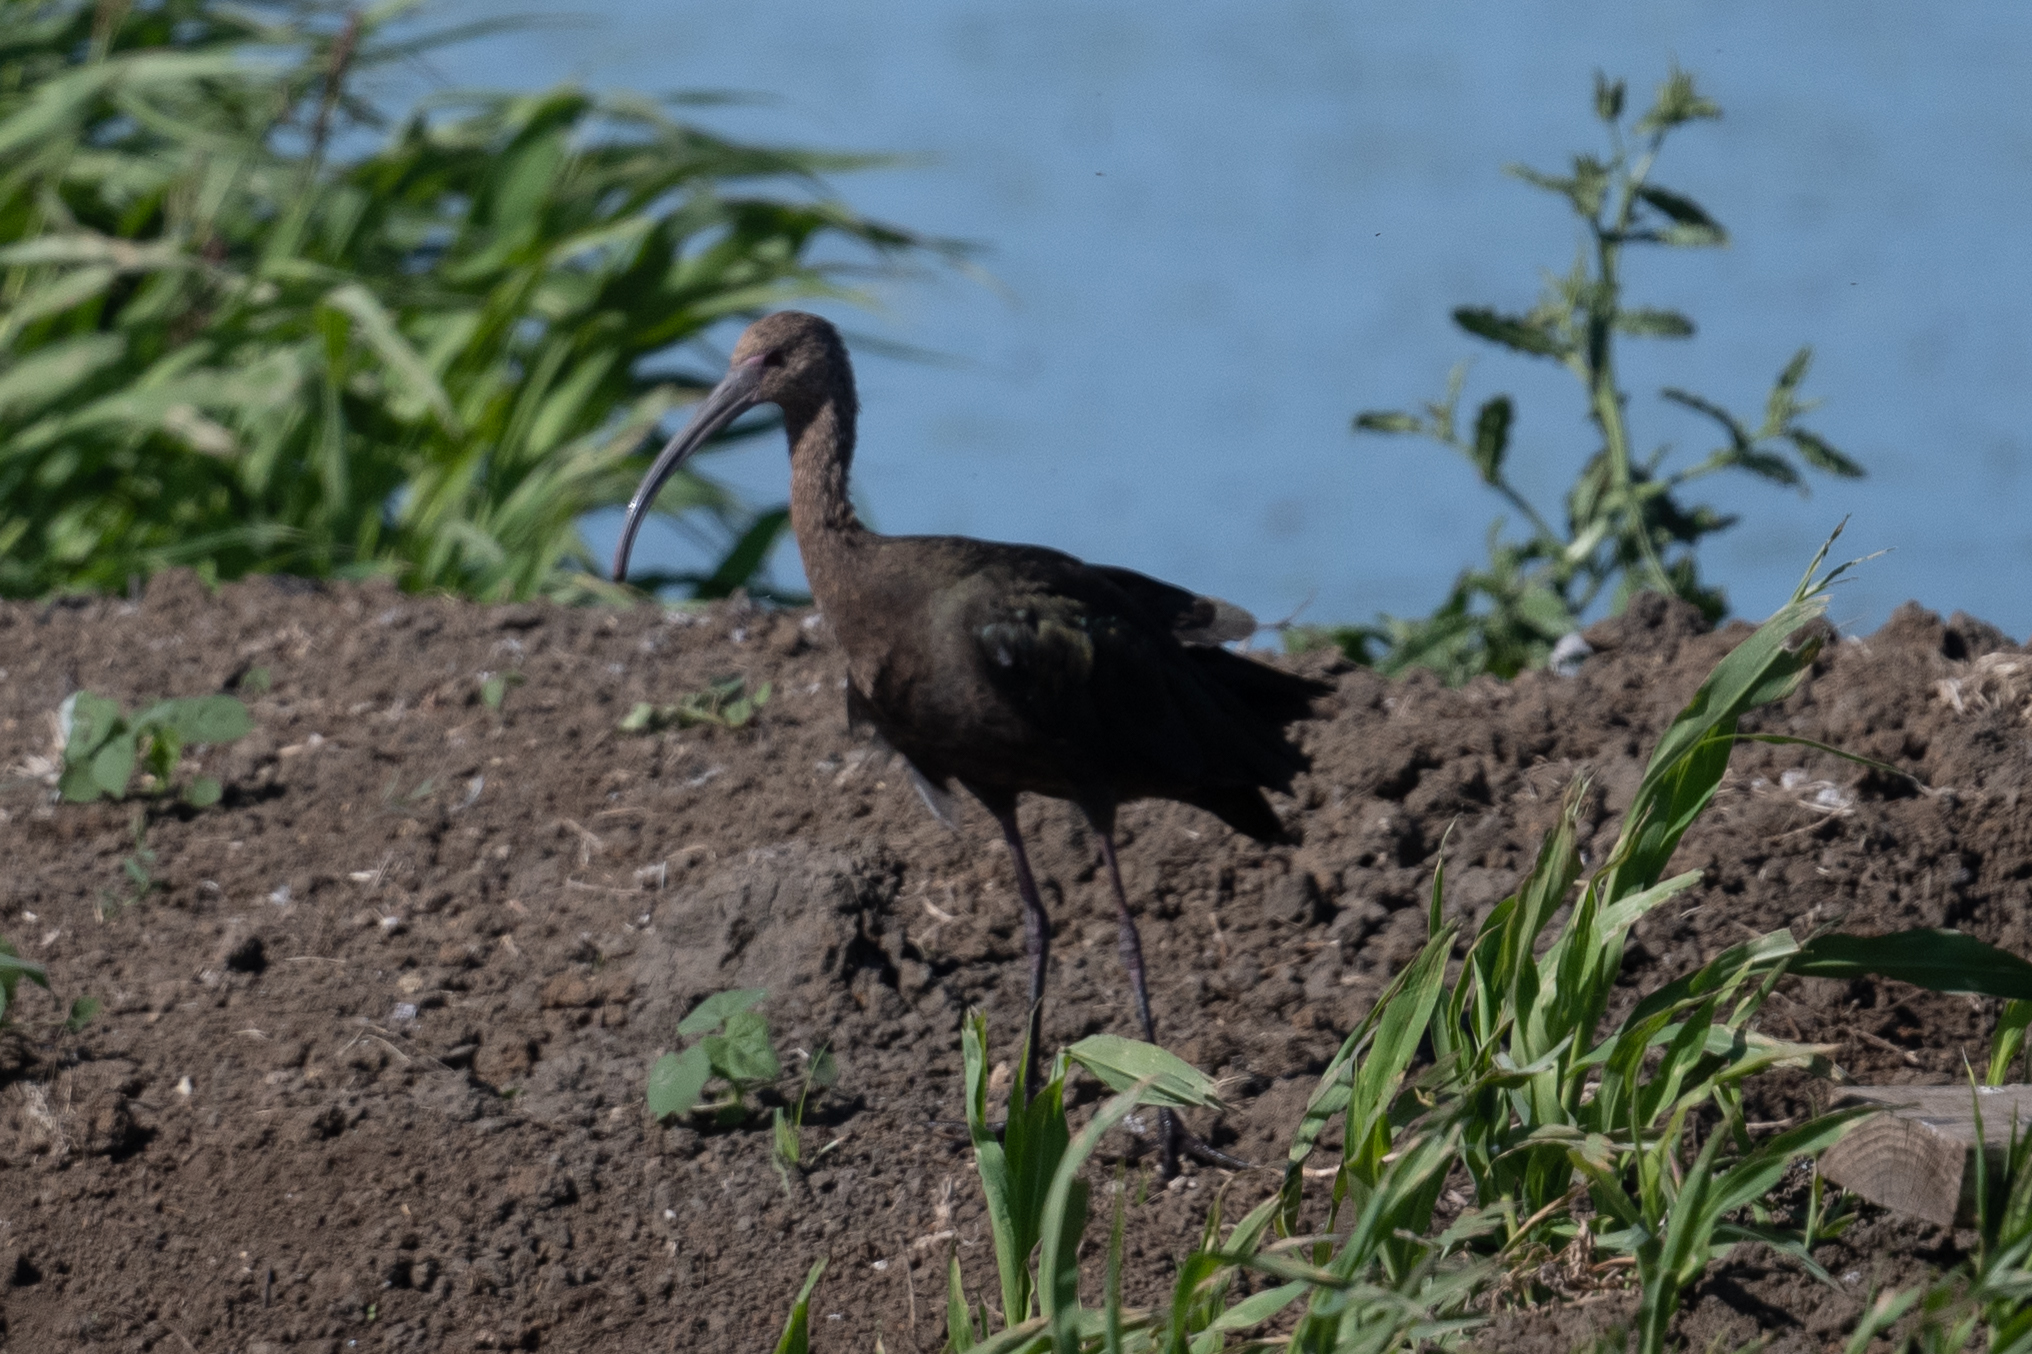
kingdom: Animalia
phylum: Chordata
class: Aves
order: Pelecaniformes
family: Threskiornithidae
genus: Plegadis
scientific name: Plegadis chihi
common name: White-faced ibis
